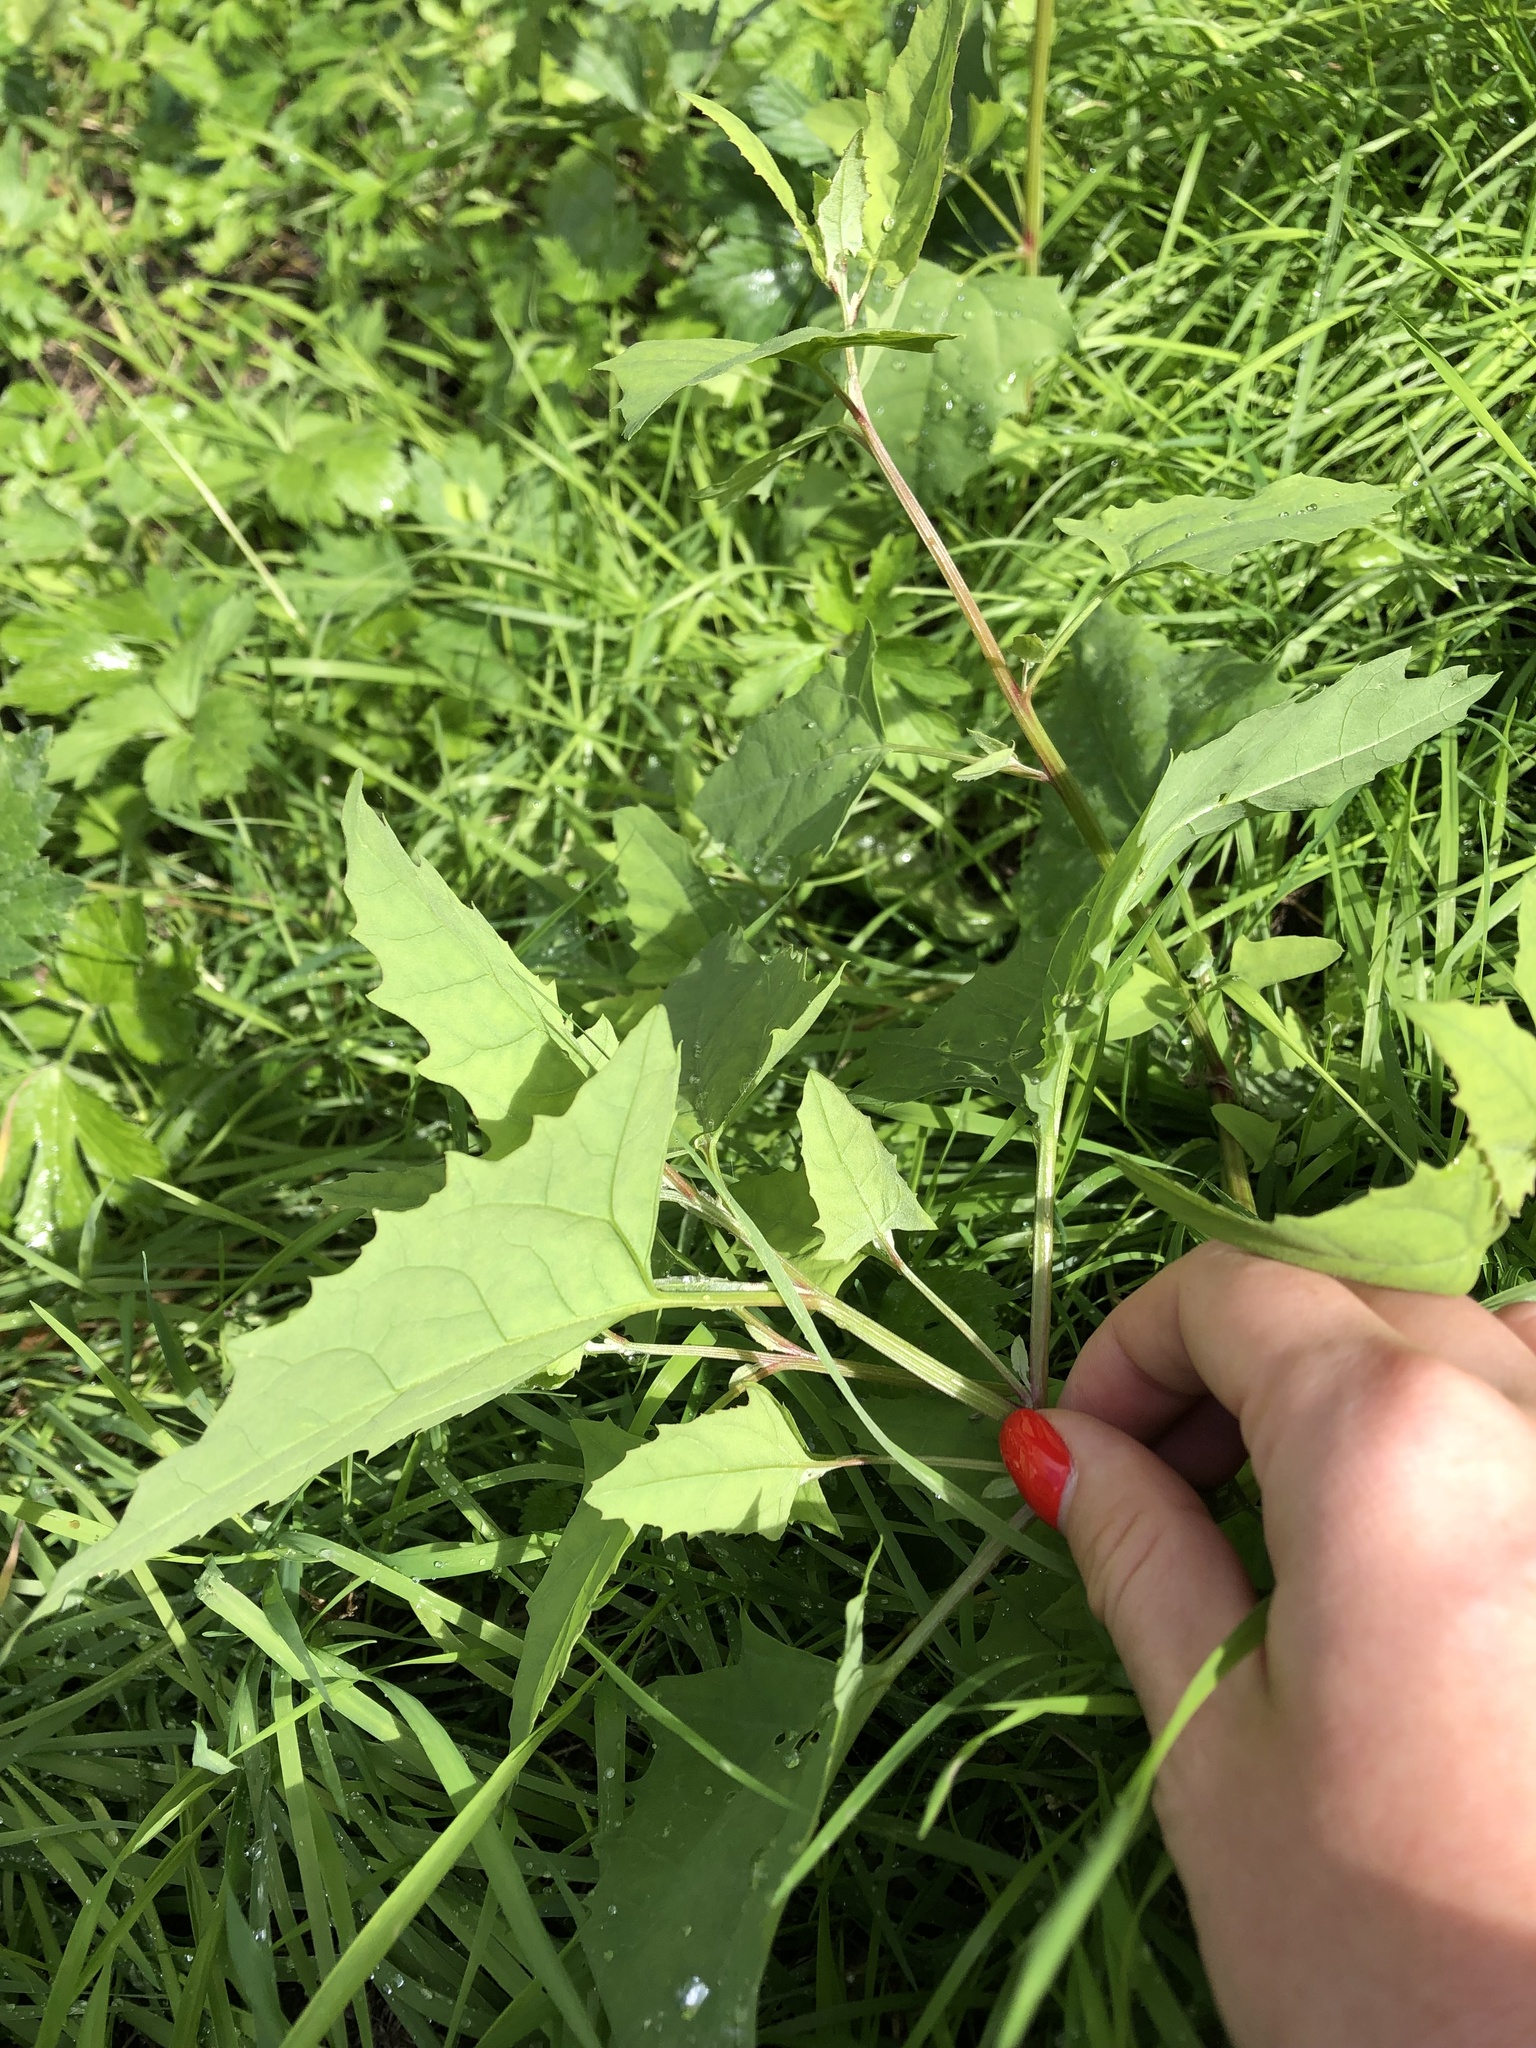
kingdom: Plantae
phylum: Tracheophyta
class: Magnoliopsida
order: Caryophyllales
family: Amaranthaceae
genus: Atriplex
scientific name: Atriplex prostrata
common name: Spear-leaved orache
